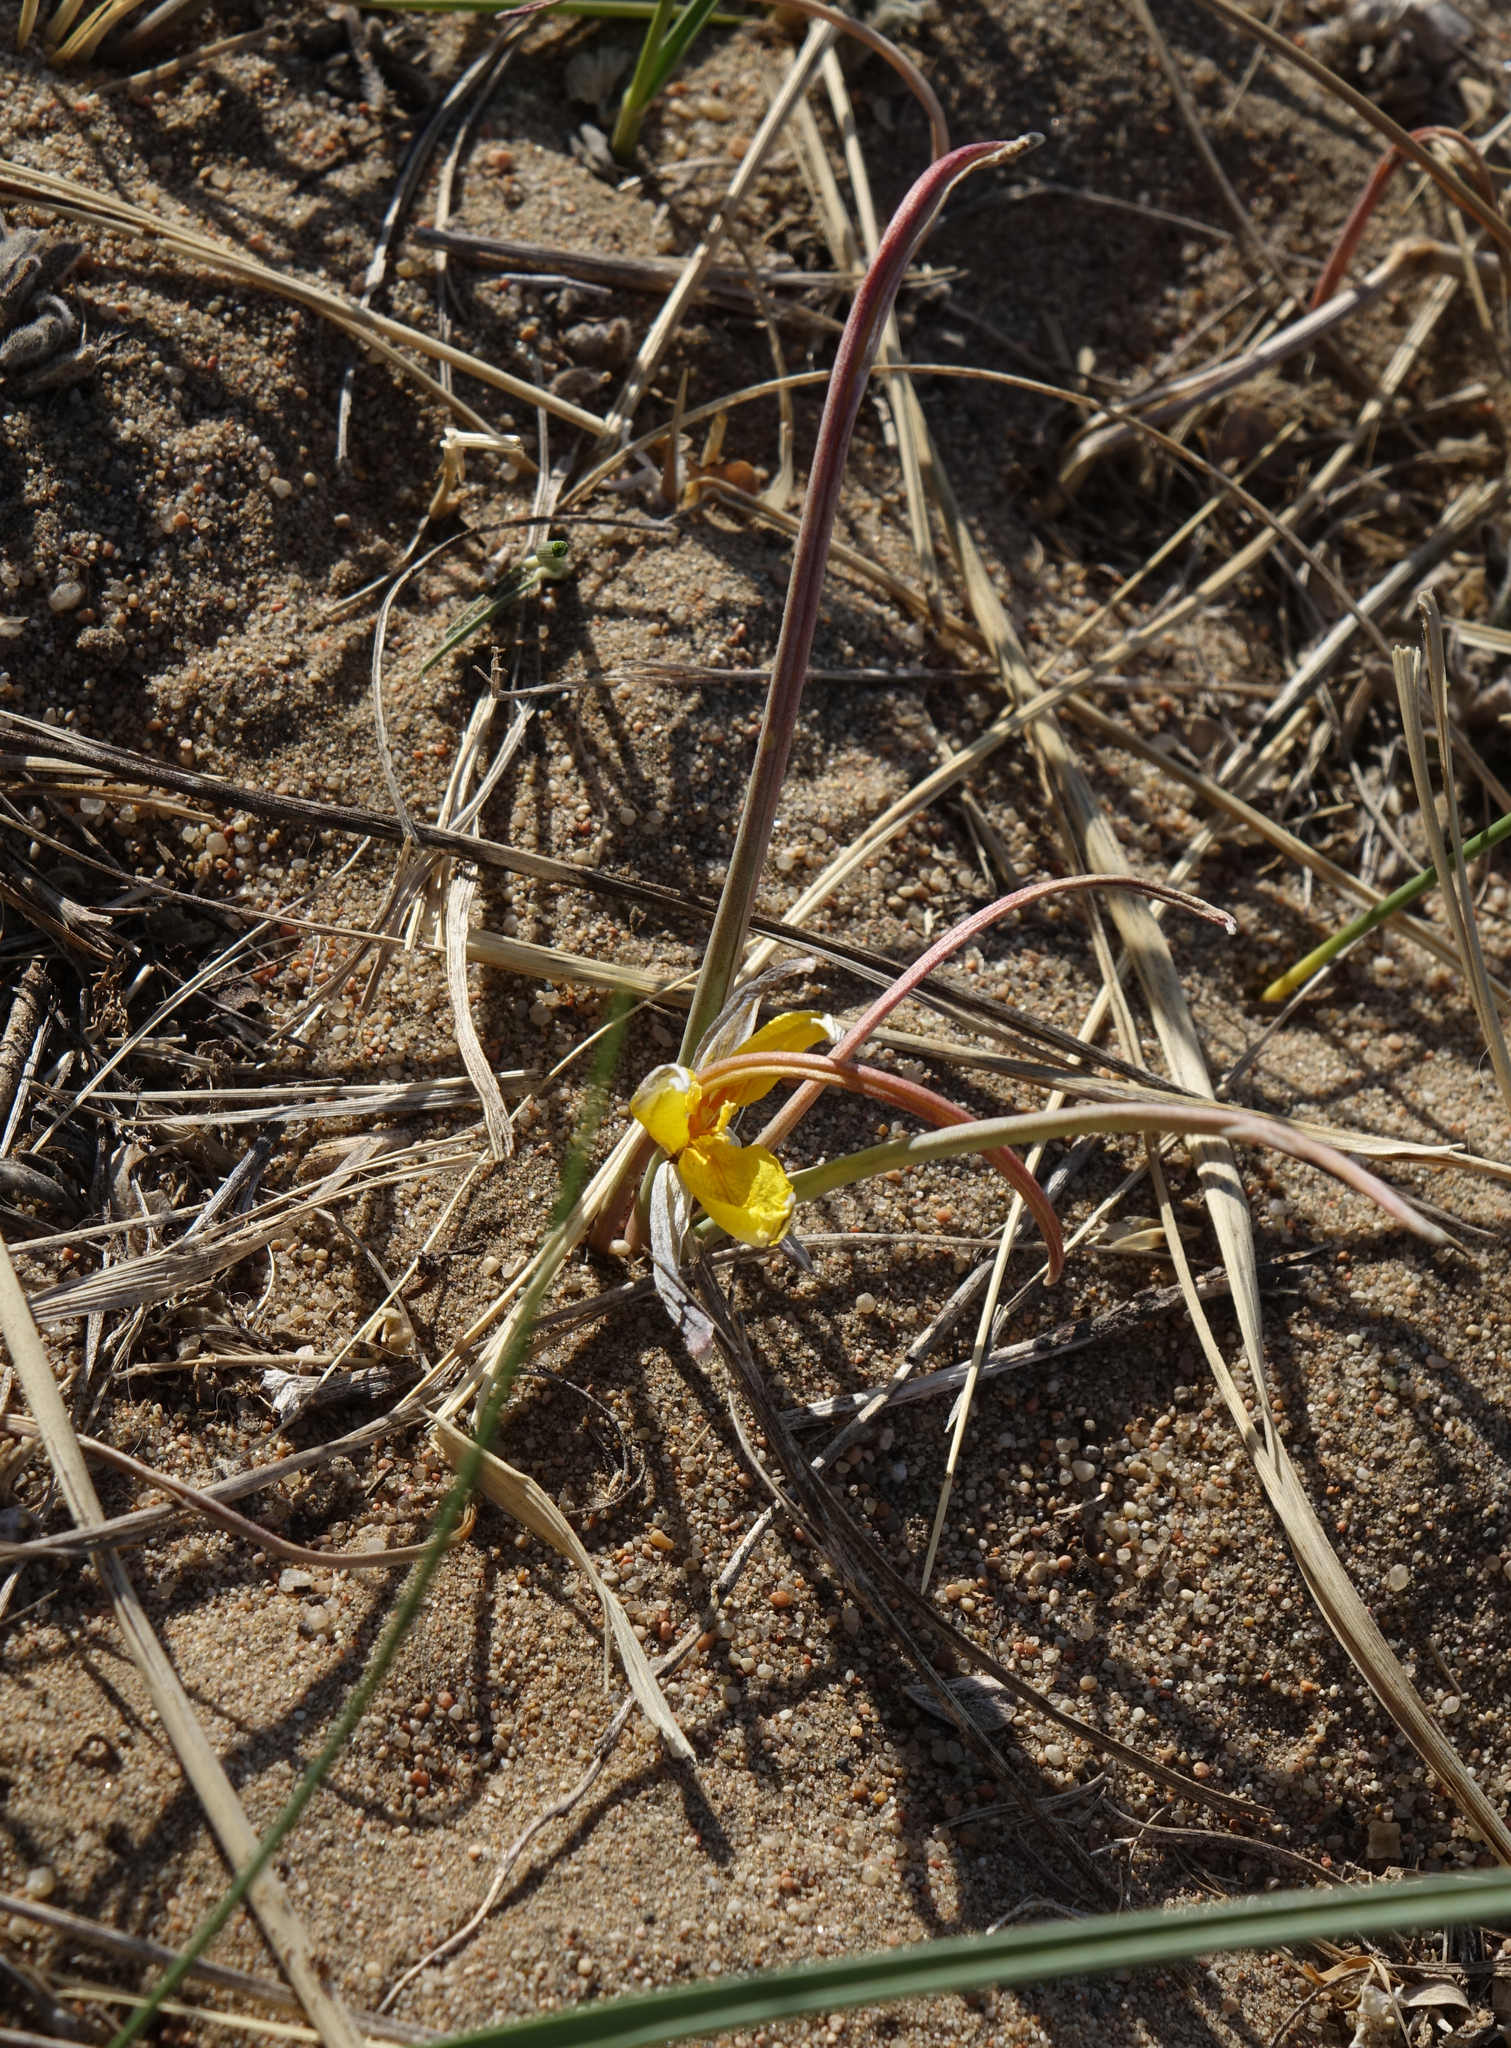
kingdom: Plantae
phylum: Tracheophyta
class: Liliopsida
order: Liliales
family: Liliaceae
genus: Tulipa
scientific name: Tulipa uniflora
